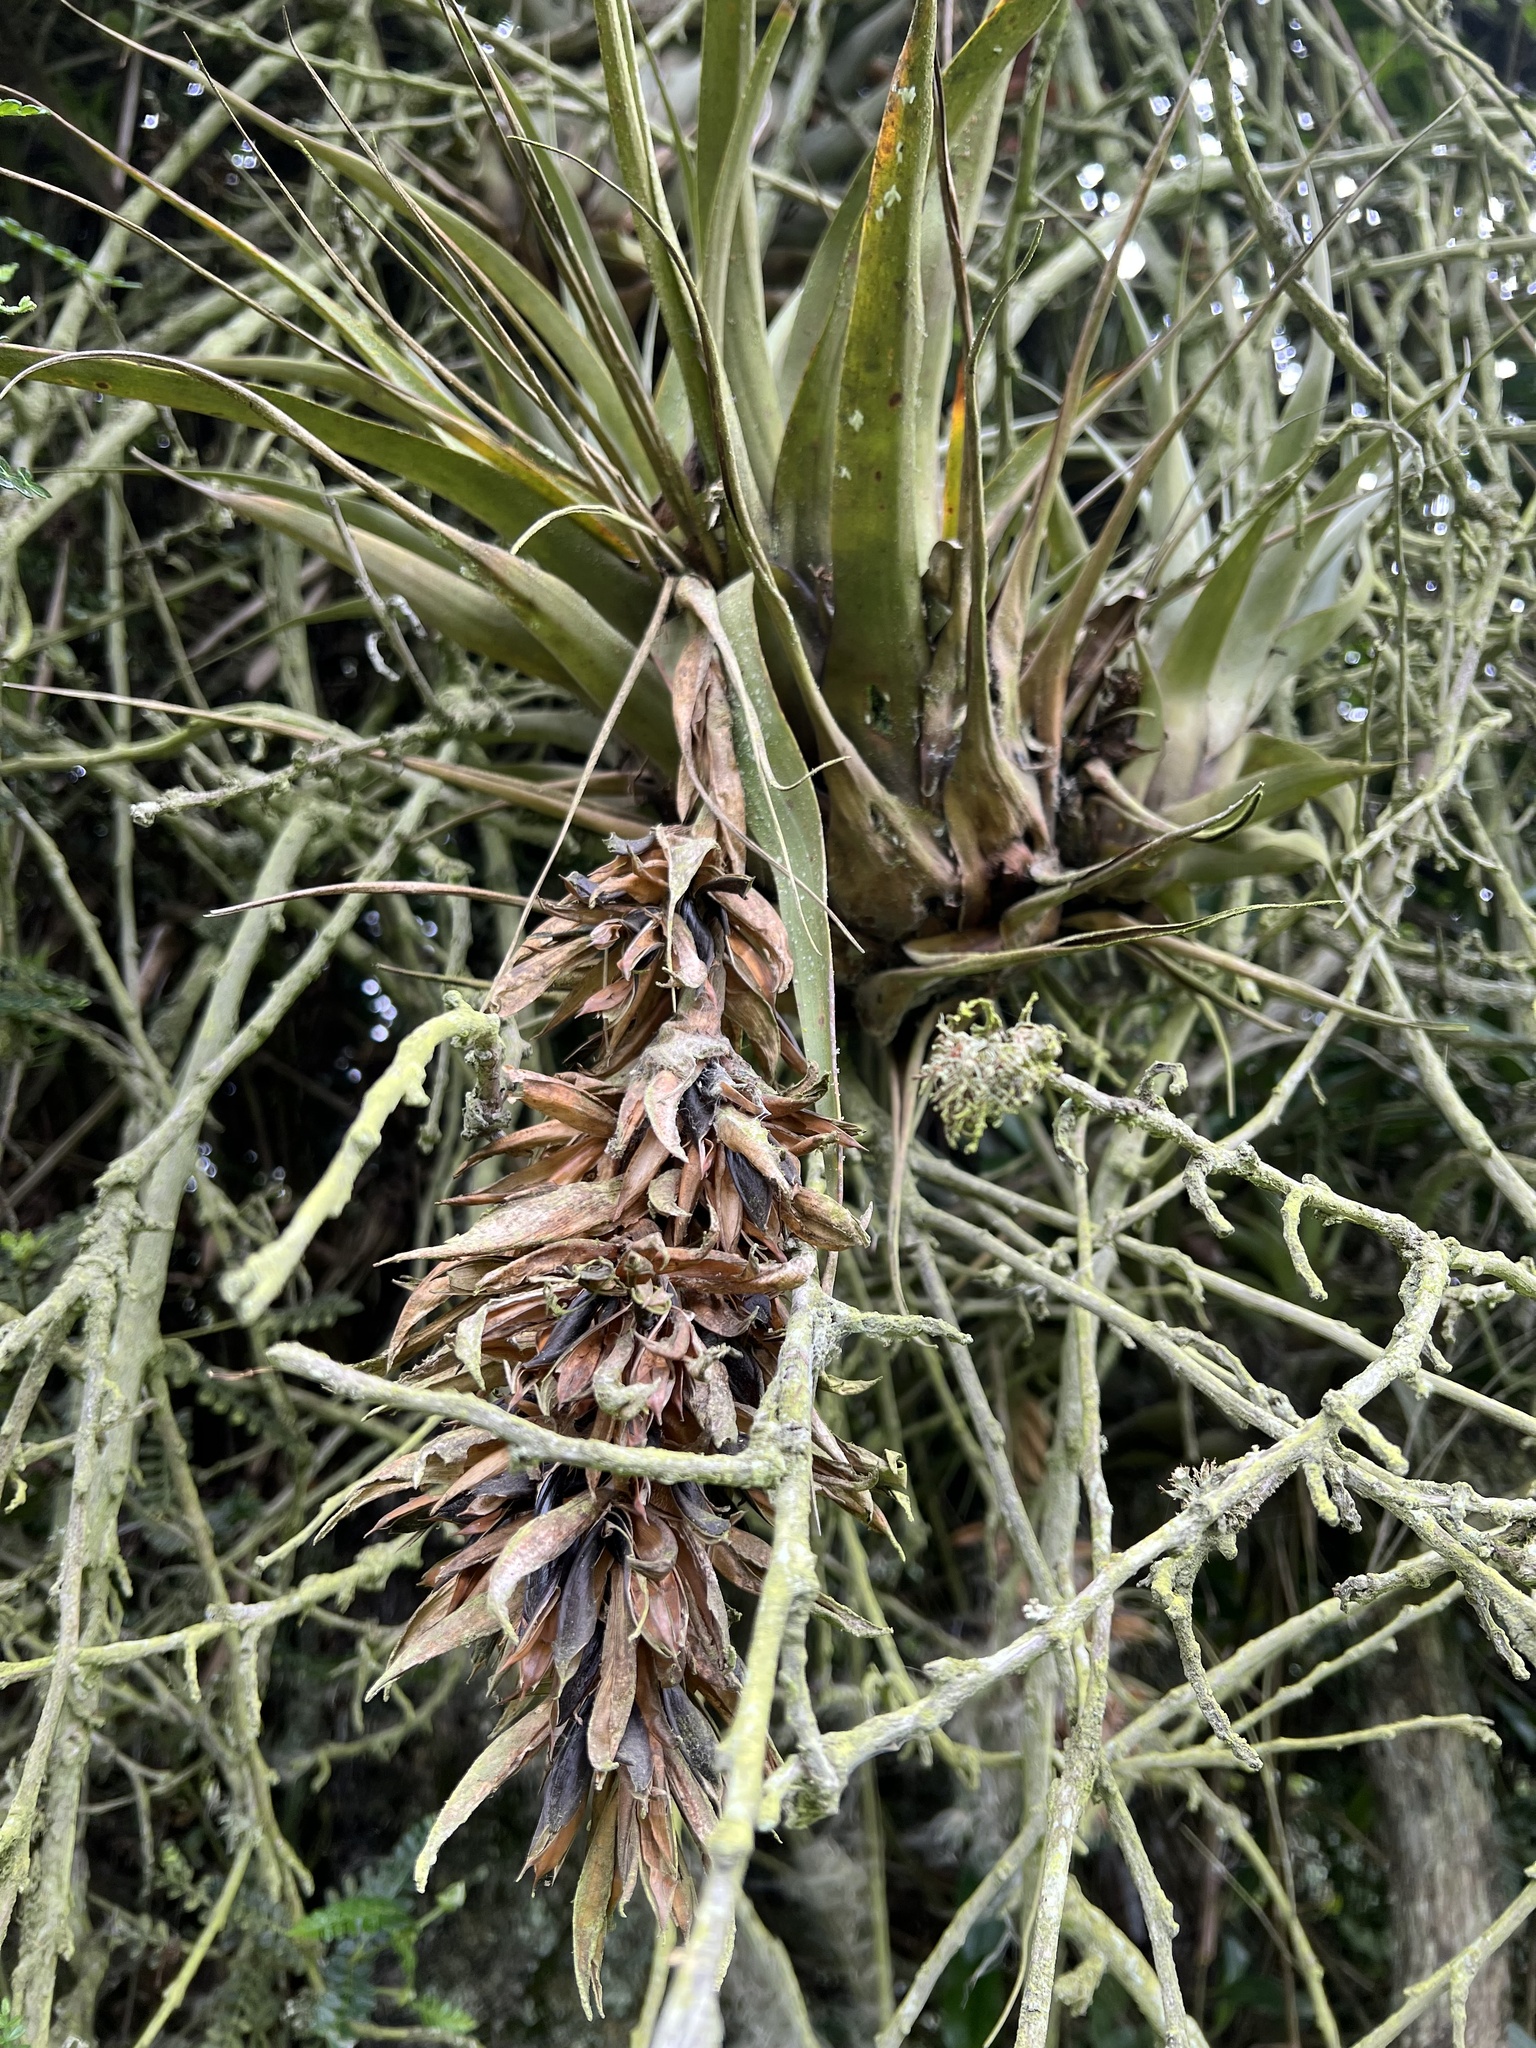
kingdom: Plantae
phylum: Tracheophyta
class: Liliopsida
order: Poales
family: Bromeliaceae
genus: Vriesea
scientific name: Vriesea tequendamae
